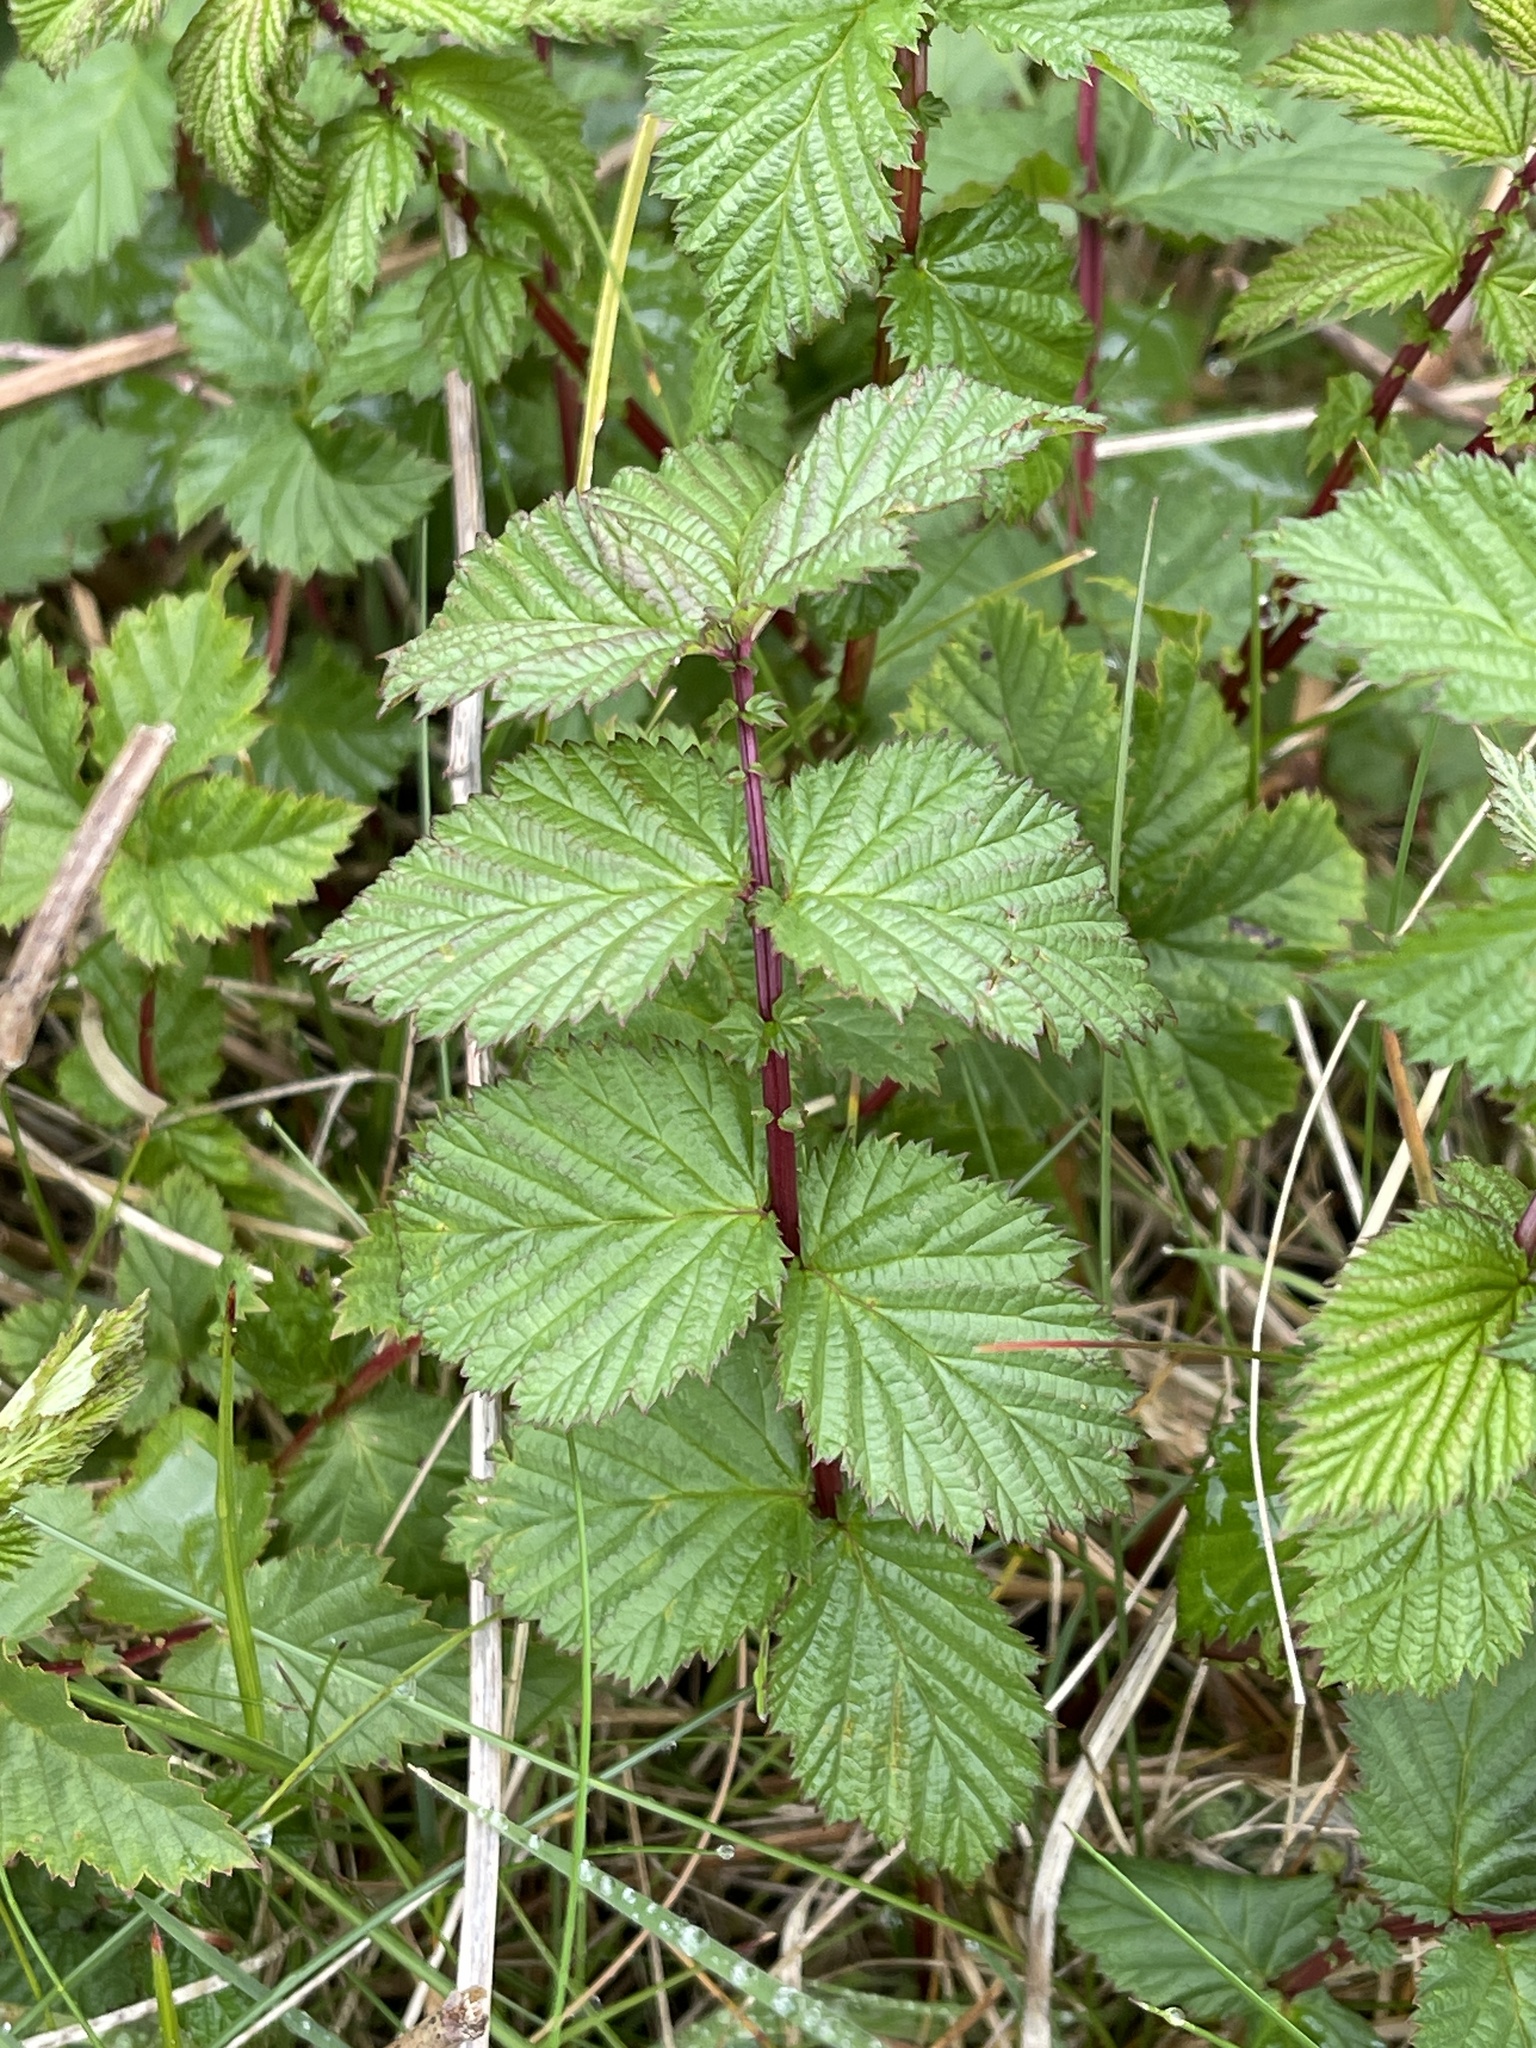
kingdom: Plantae
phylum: Tracheophyta
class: Magnoliopsida
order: Rosales
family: Rosaceae
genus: Filipendula
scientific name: Filipendula ulmaria
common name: Meadowsweet
